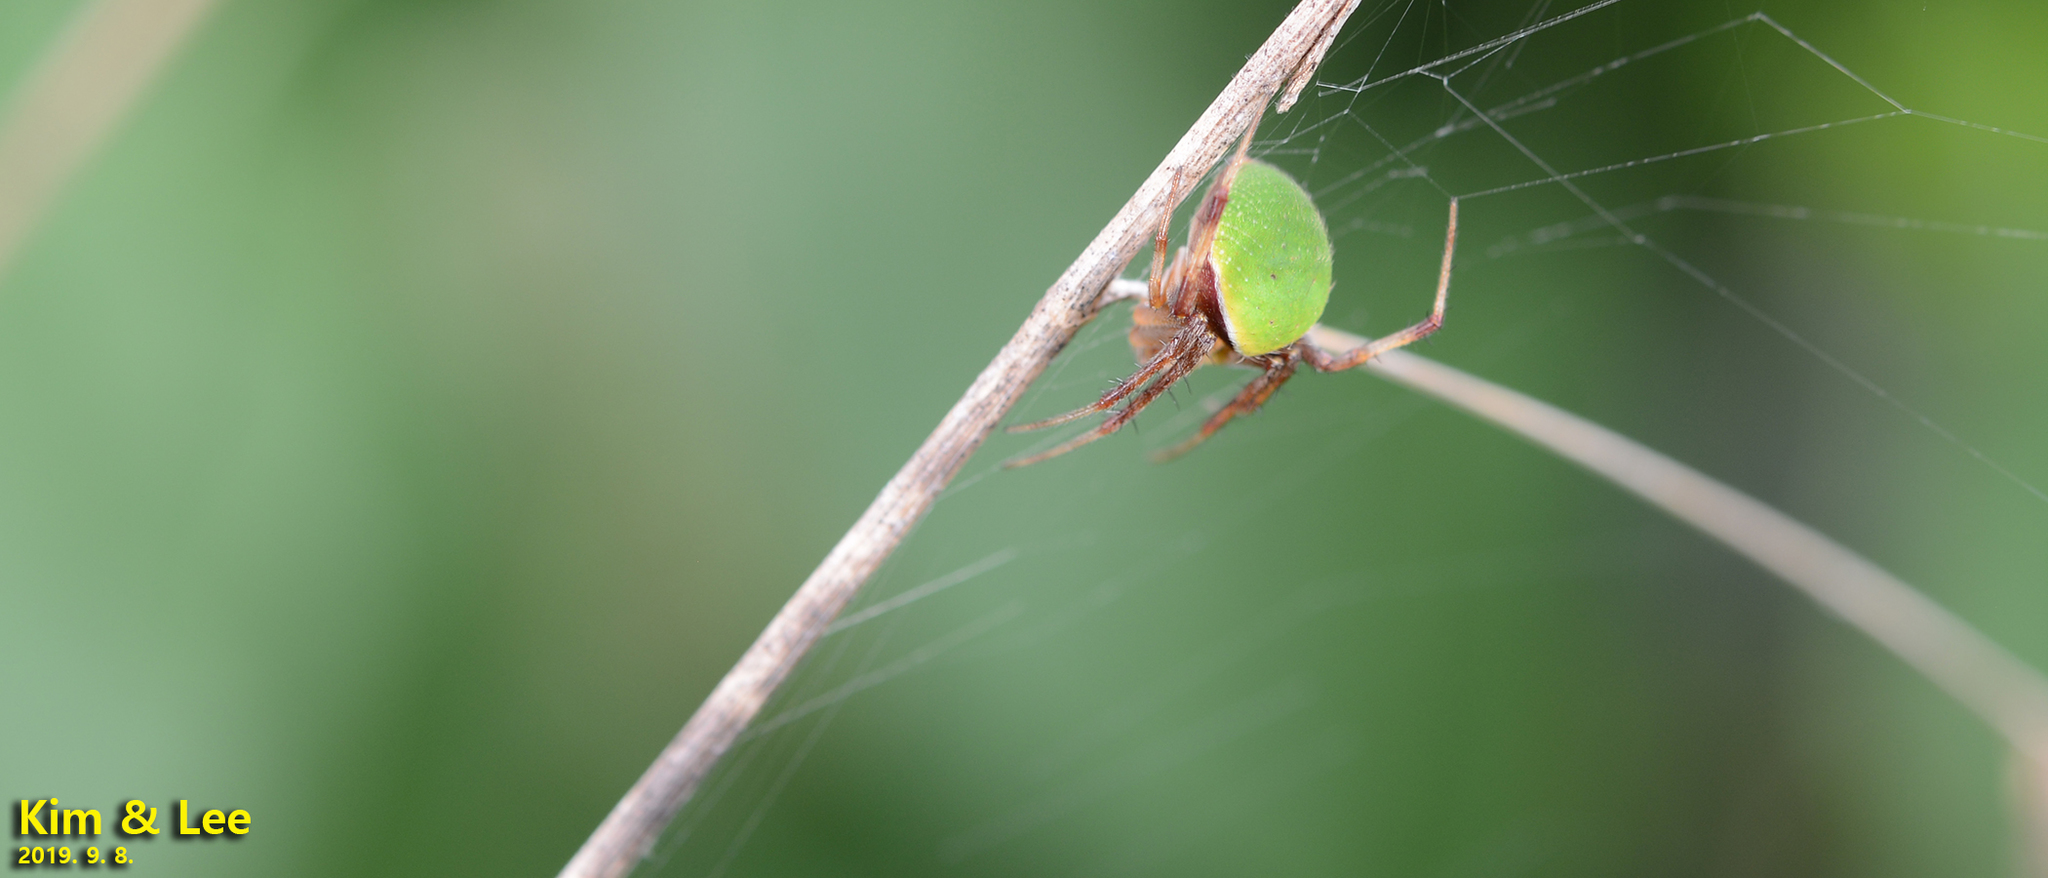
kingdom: Animalia
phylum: Arthropoda
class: Arachnida
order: Araneae
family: Araneidae
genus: Neoscona
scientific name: Neoscona mellotteei
